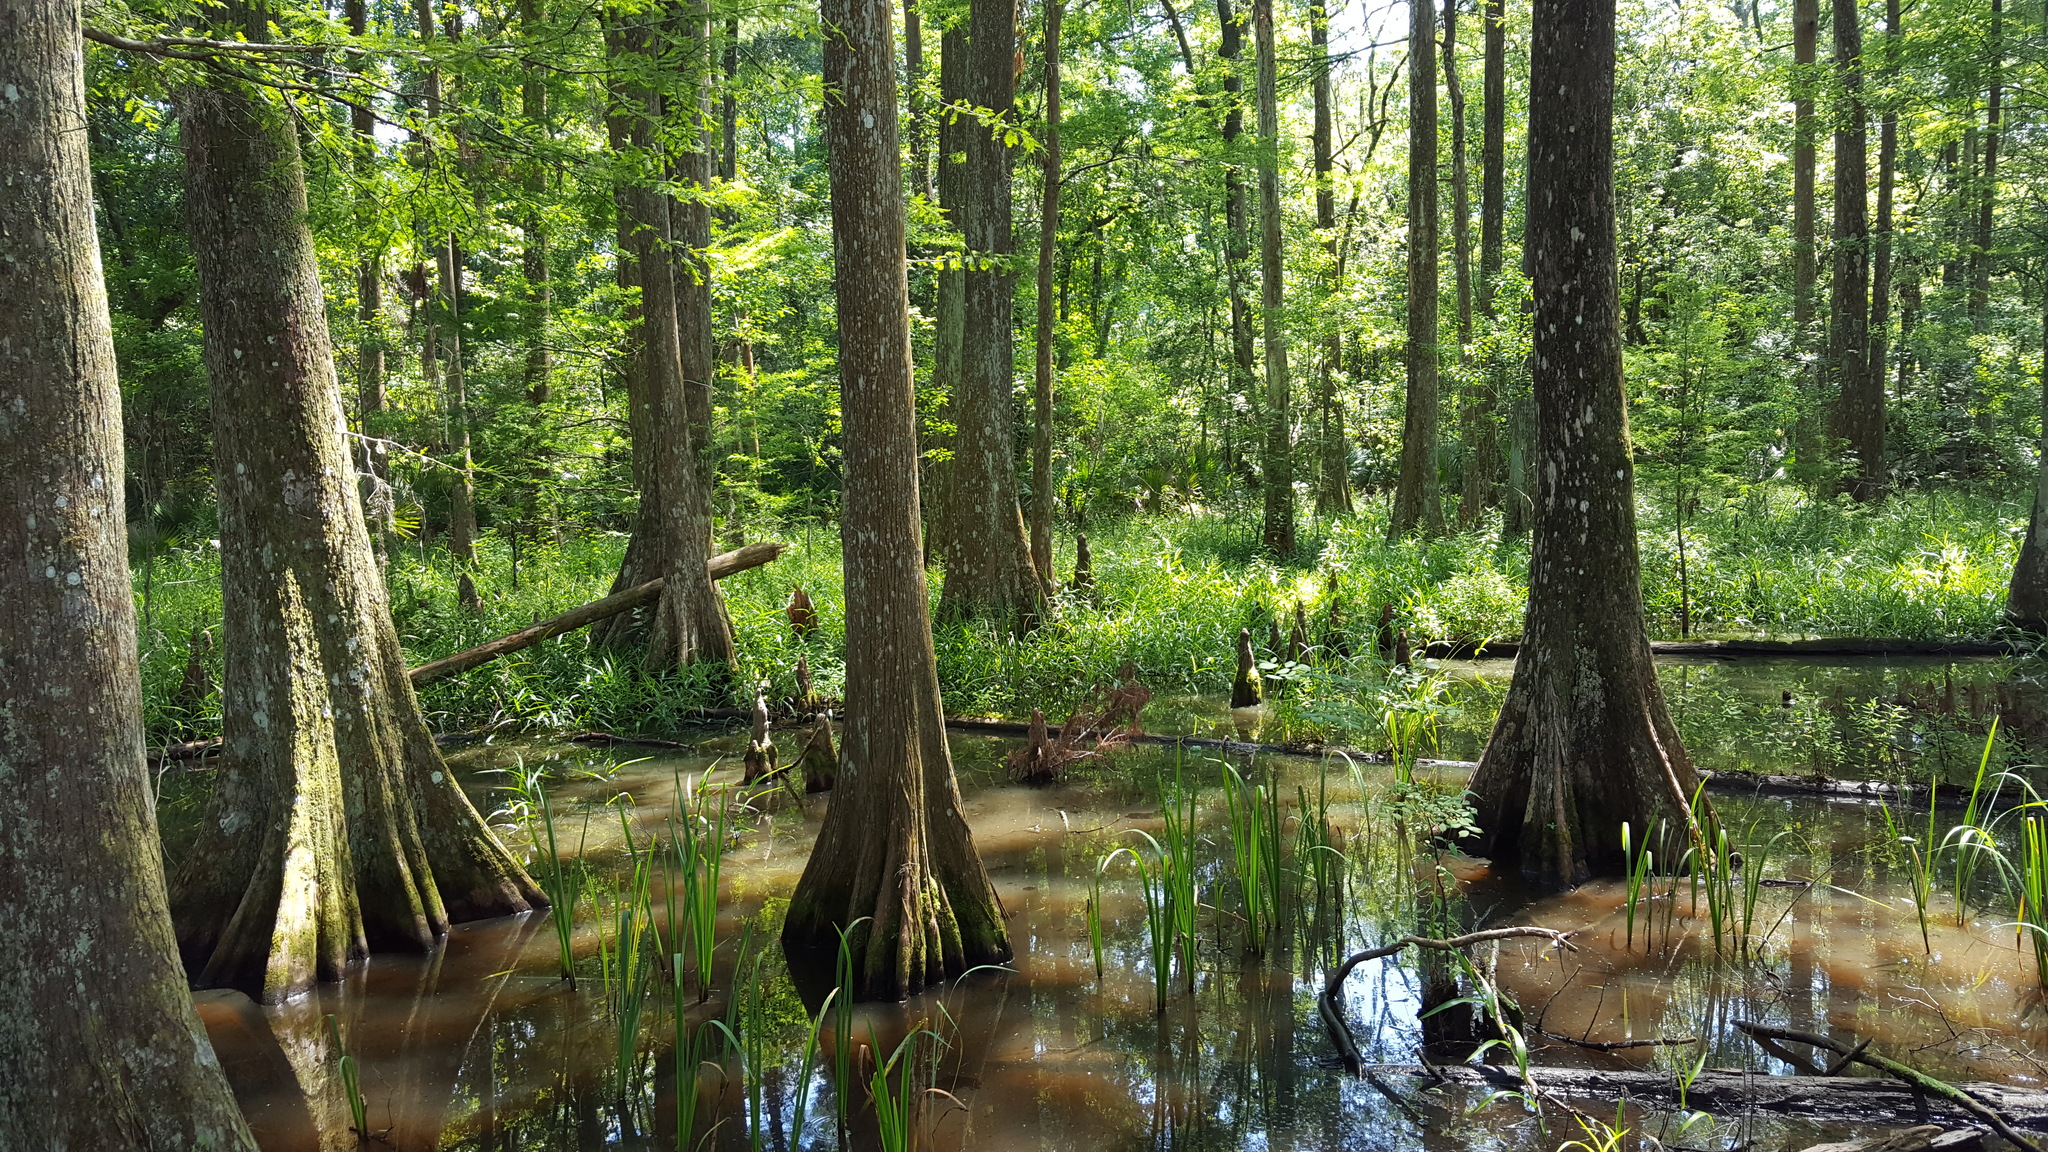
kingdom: Plantae
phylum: Tracheophyta
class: Pinopsida
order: Pinales
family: Cupressaceae
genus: Taxodium
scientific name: Taxodium distichum
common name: Bald cypress
